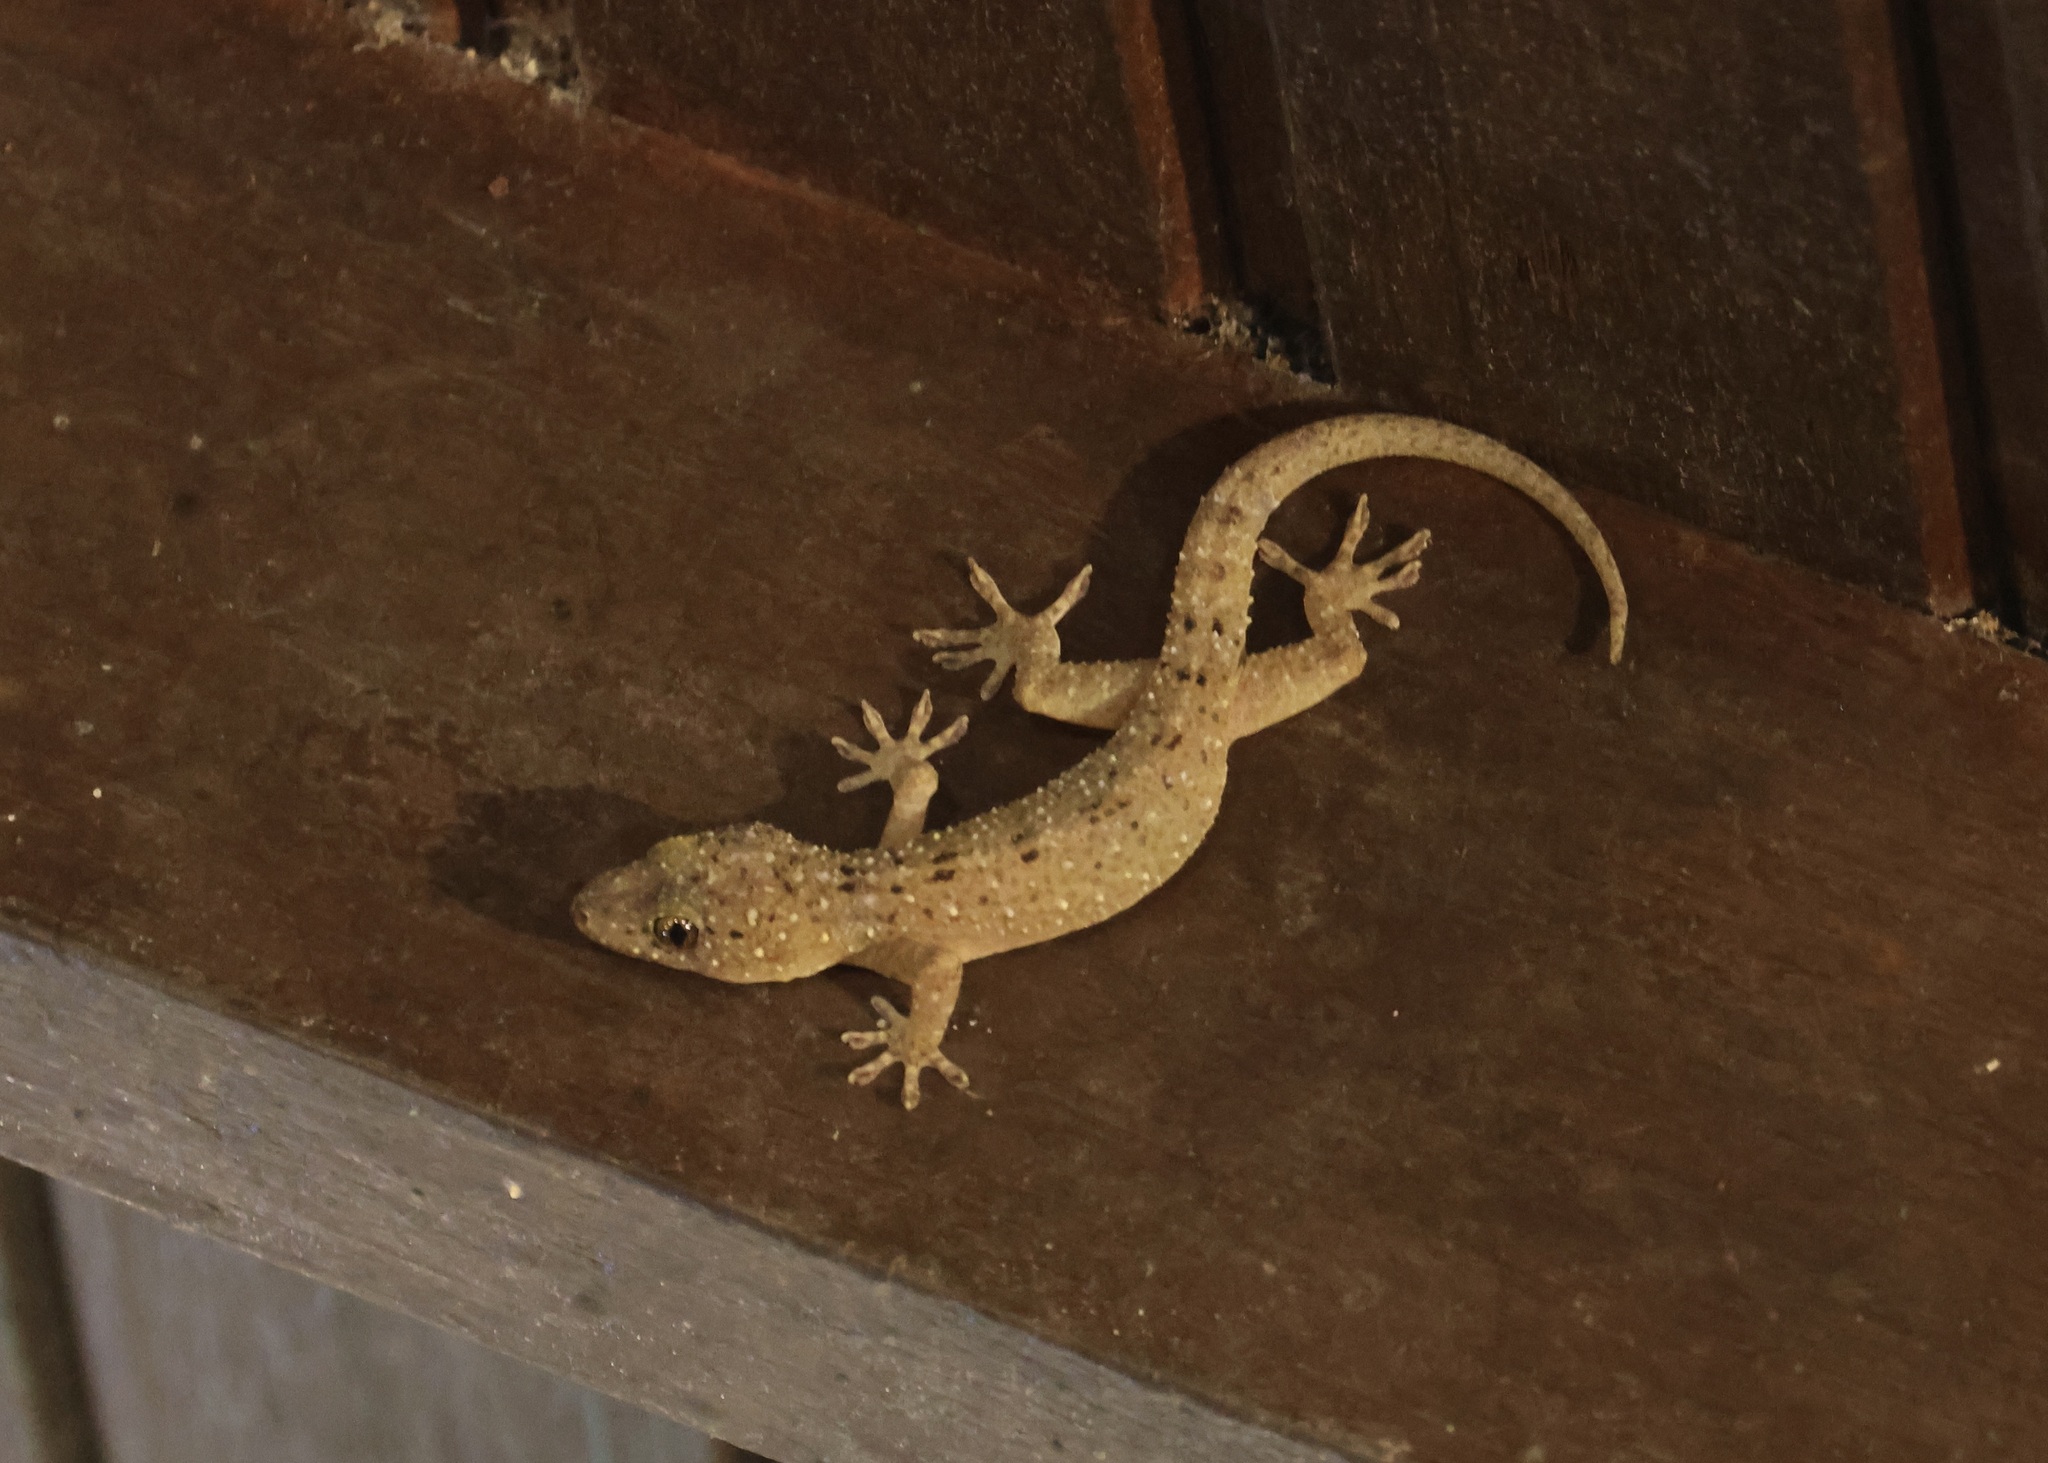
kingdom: Animalia
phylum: Chordata
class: Squamata
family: Gekkonidae
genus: Gekko
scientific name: Gekko monarchus
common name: Spotted house gecko
